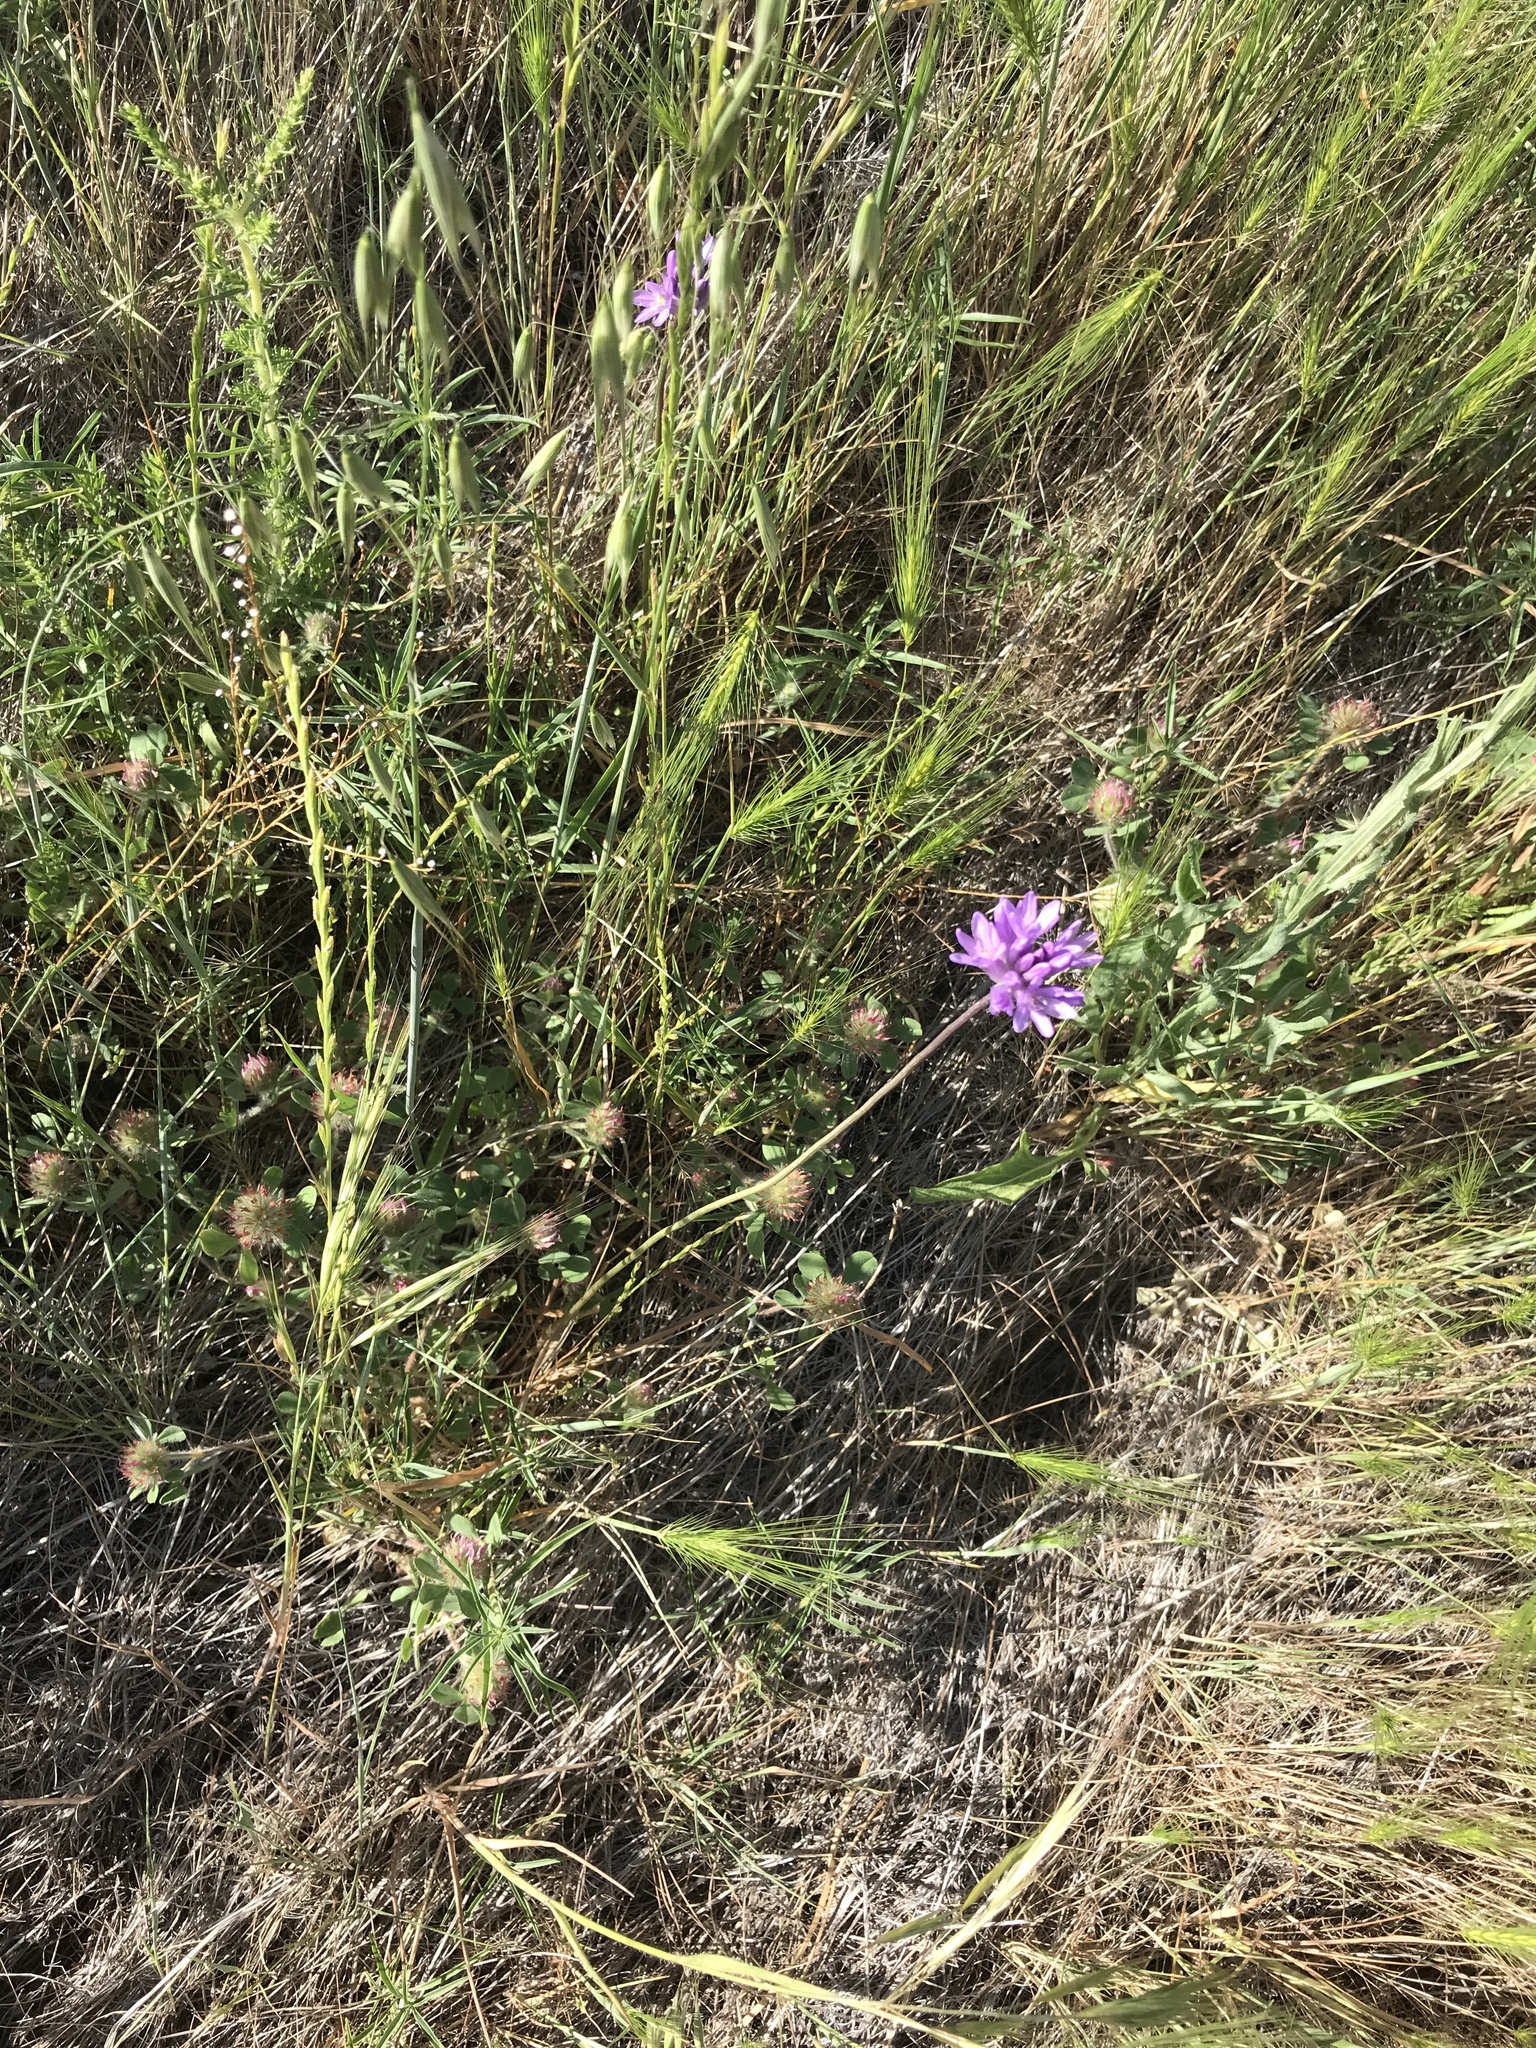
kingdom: Plantae
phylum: Tracheophyta
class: Liliopsida
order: Asparagales
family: Asparagaceae
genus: Dichelostemma
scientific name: Dichelostemma congestum
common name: Fork-tooth ookow
